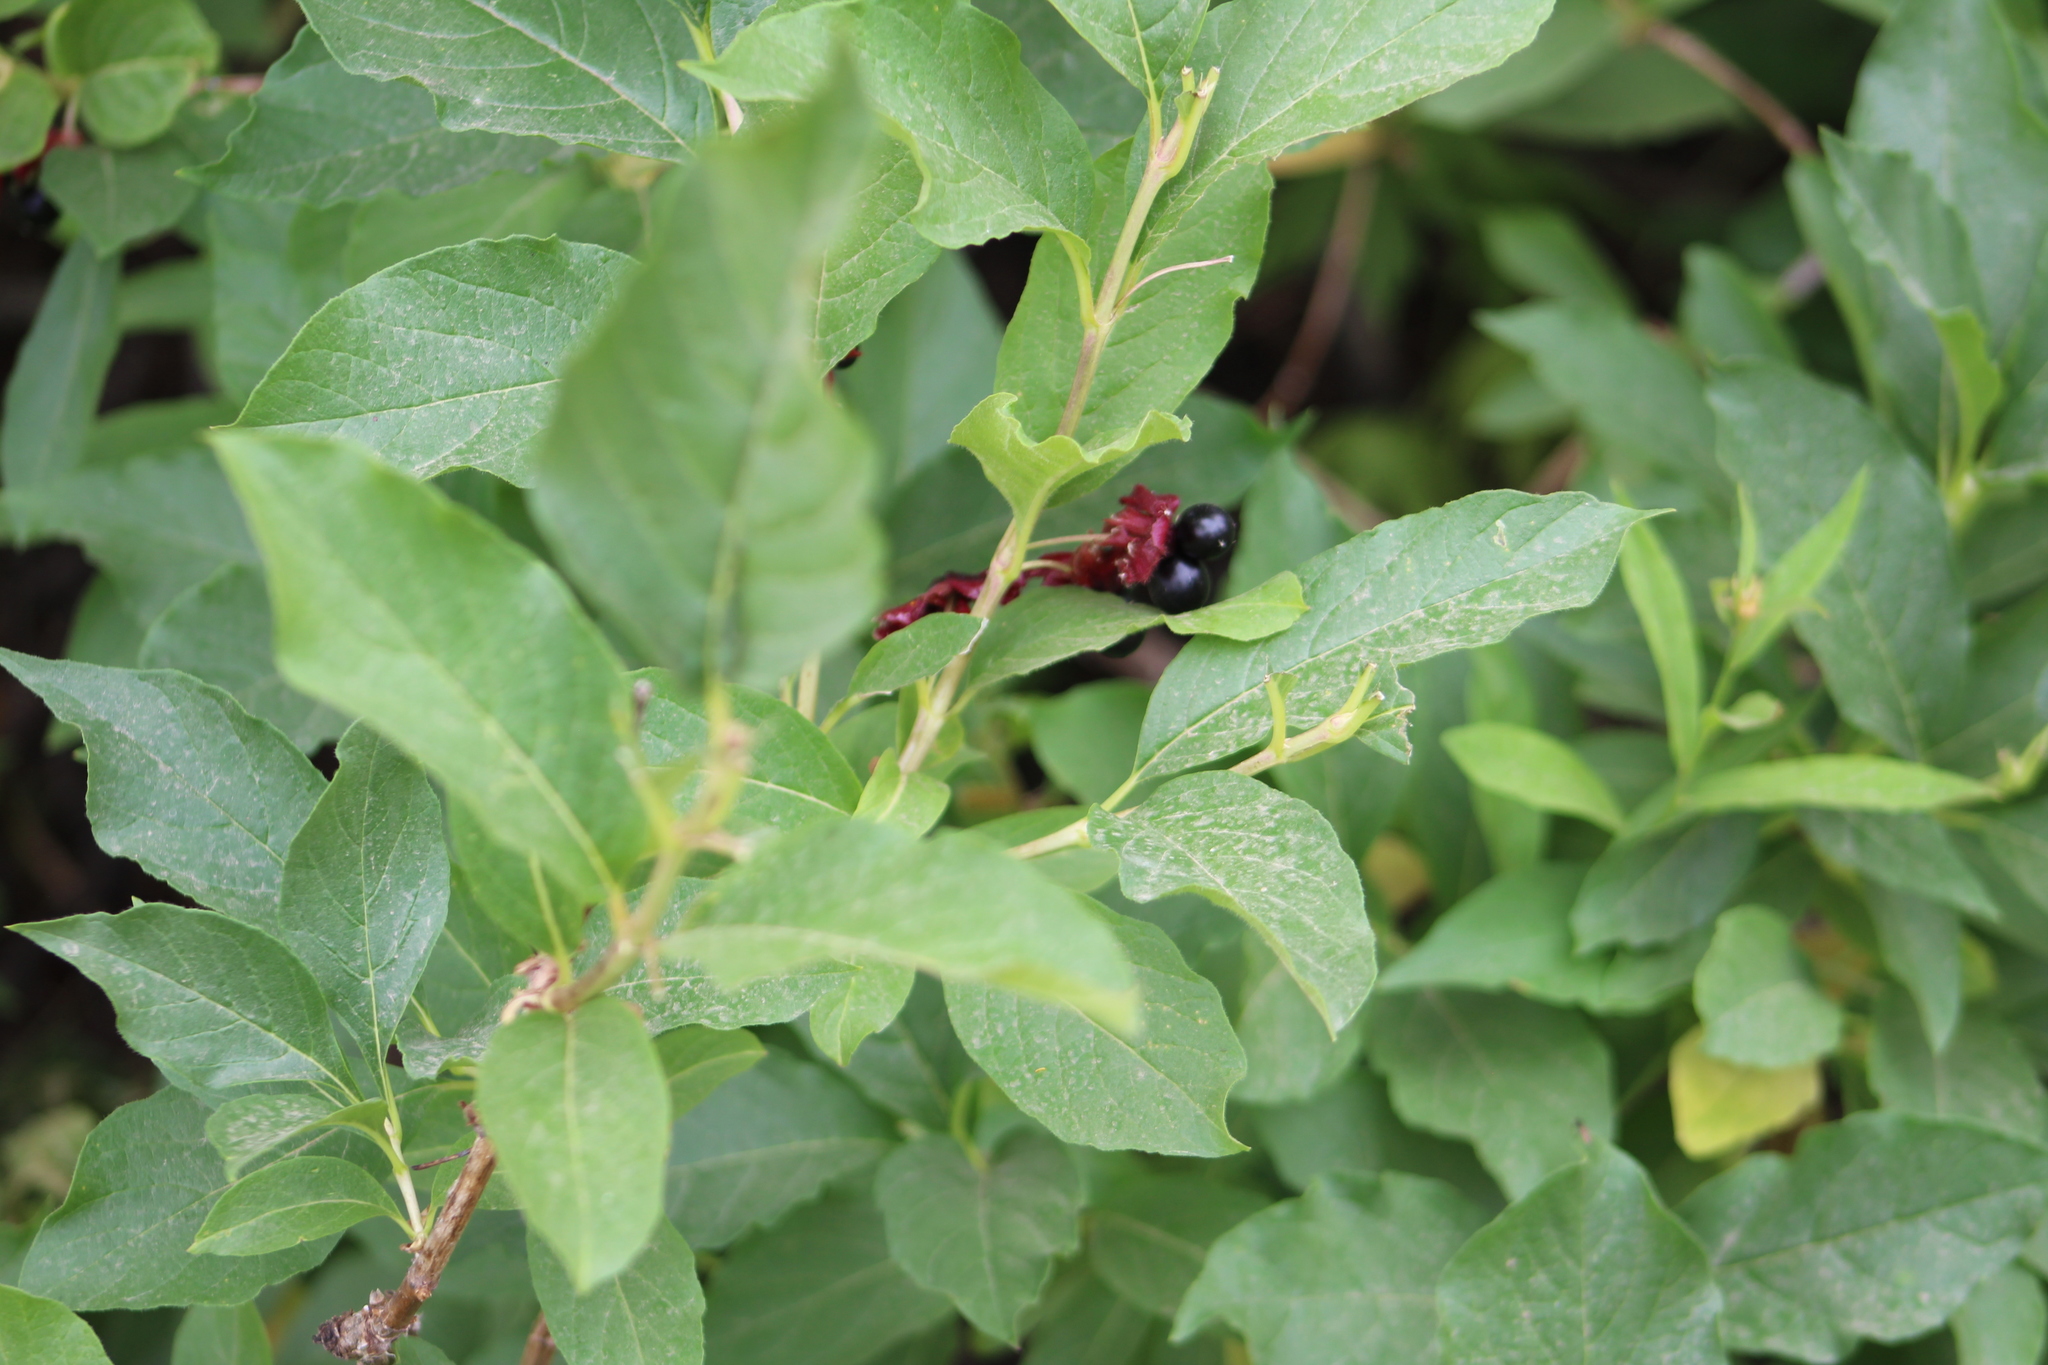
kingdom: Plantae
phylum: Tracheophyta
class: Magnoliopsida
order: Dipsacales
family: Caprifoliaceae
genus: Lonicera
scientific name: Lonicera involucrata
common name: Californian honeysuckle
